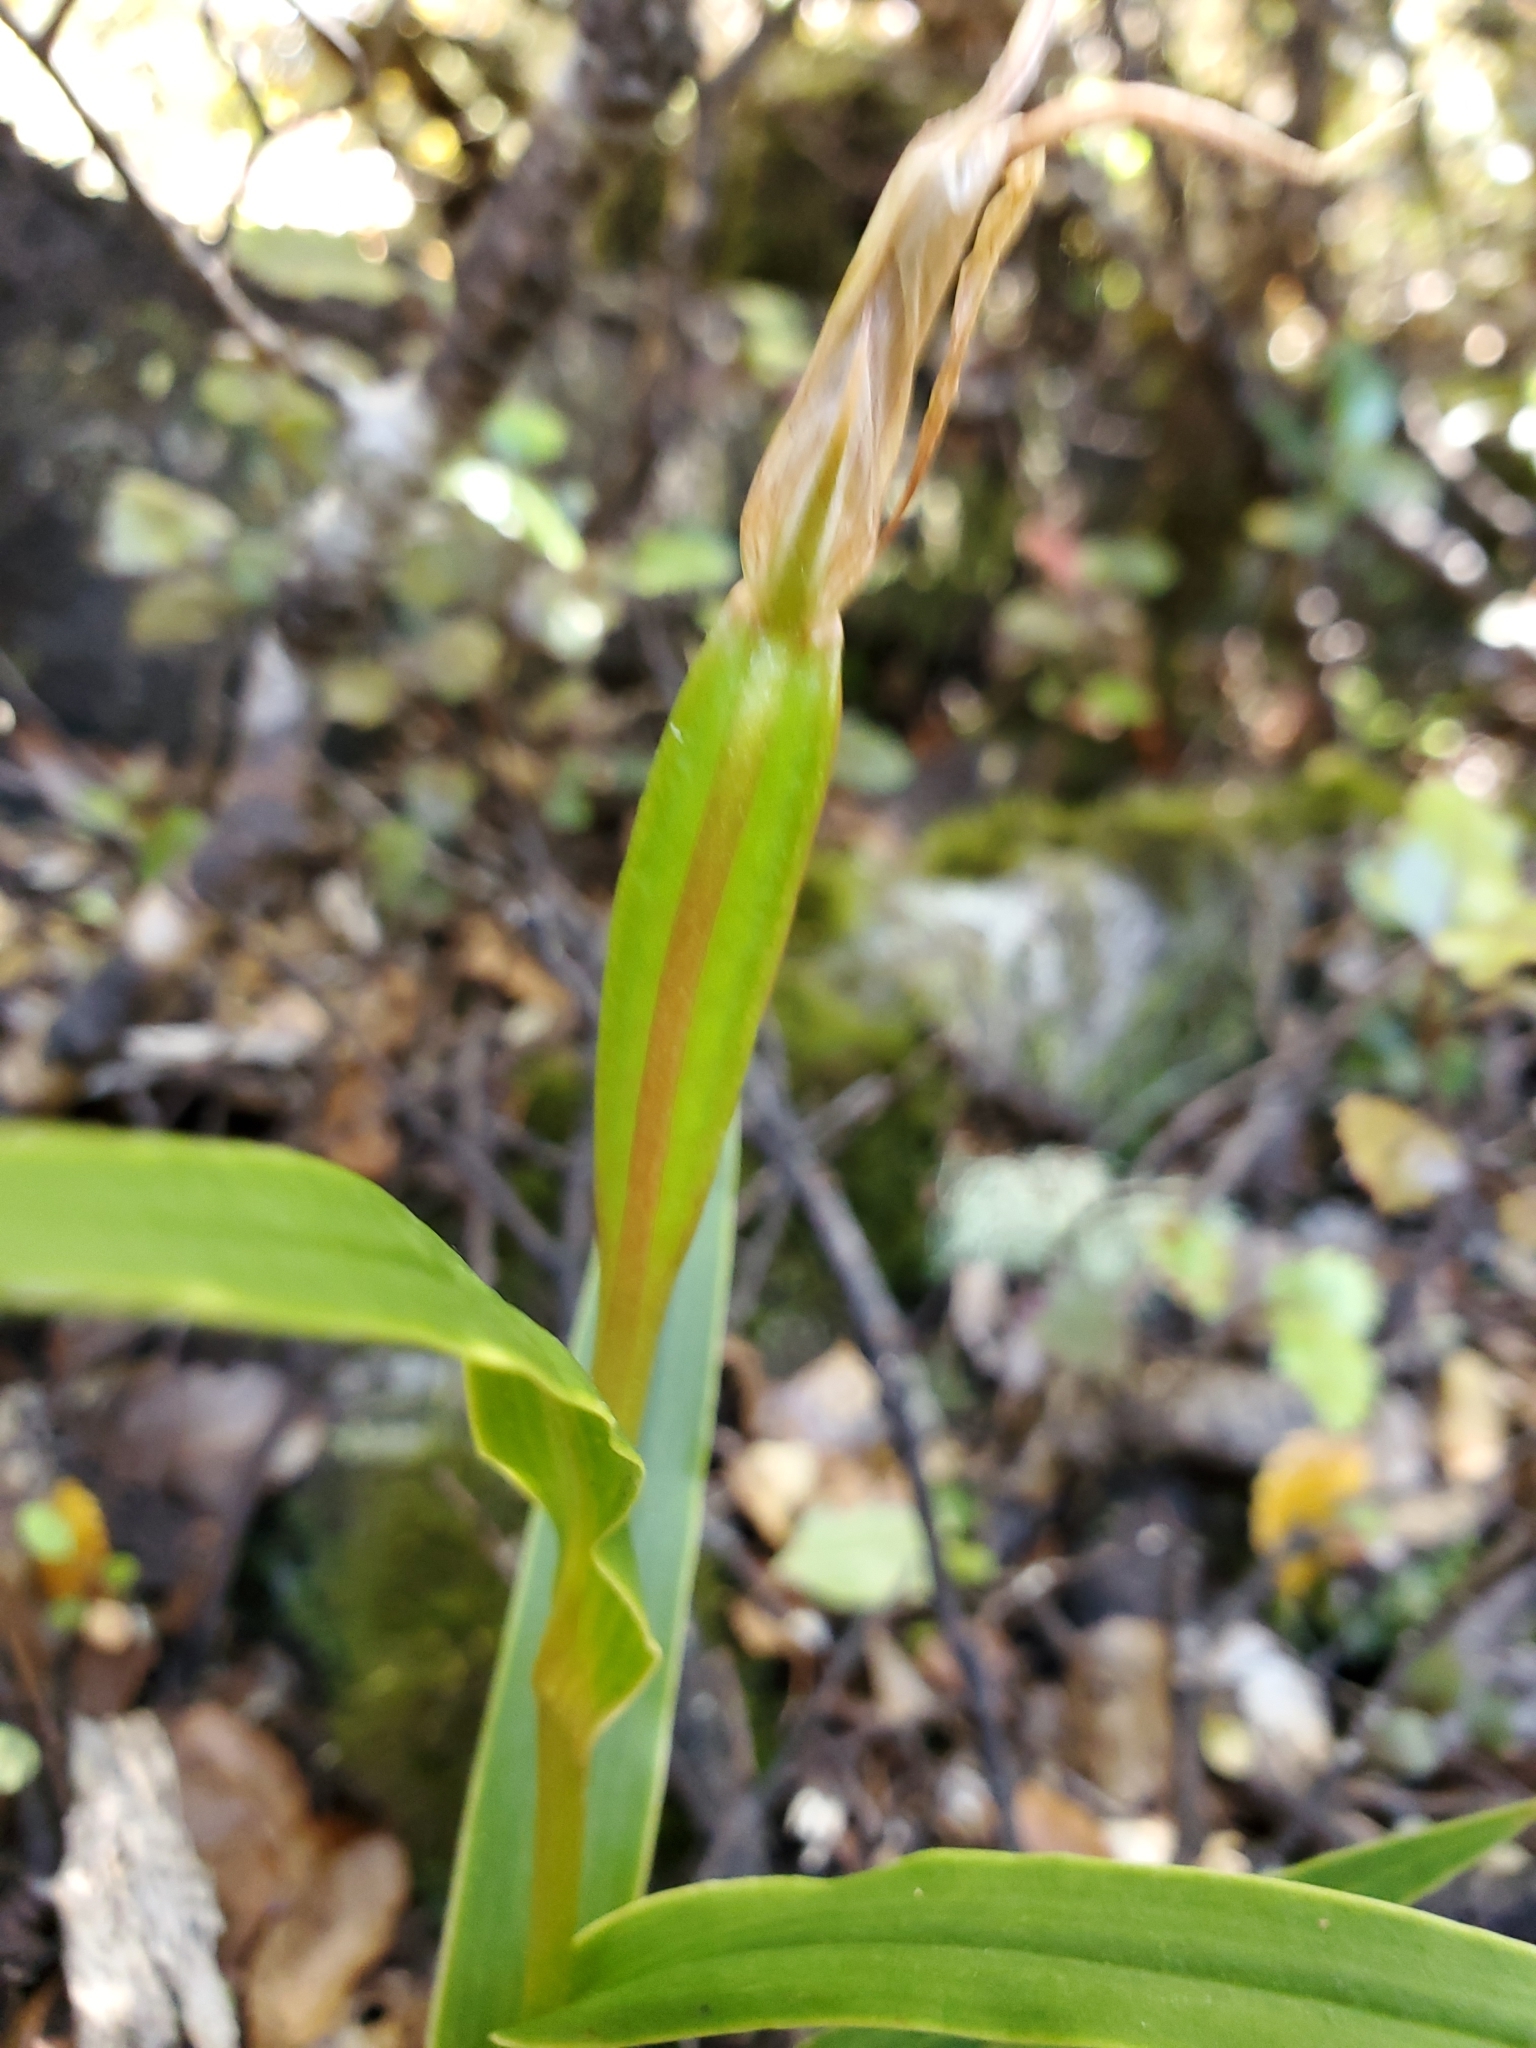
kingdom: Plantae
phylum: Tracheophyta
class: Liliopsida
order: Asparagales
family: Orchidaceae
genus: Pterostylis
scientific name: Pterostylis cardiostigma
